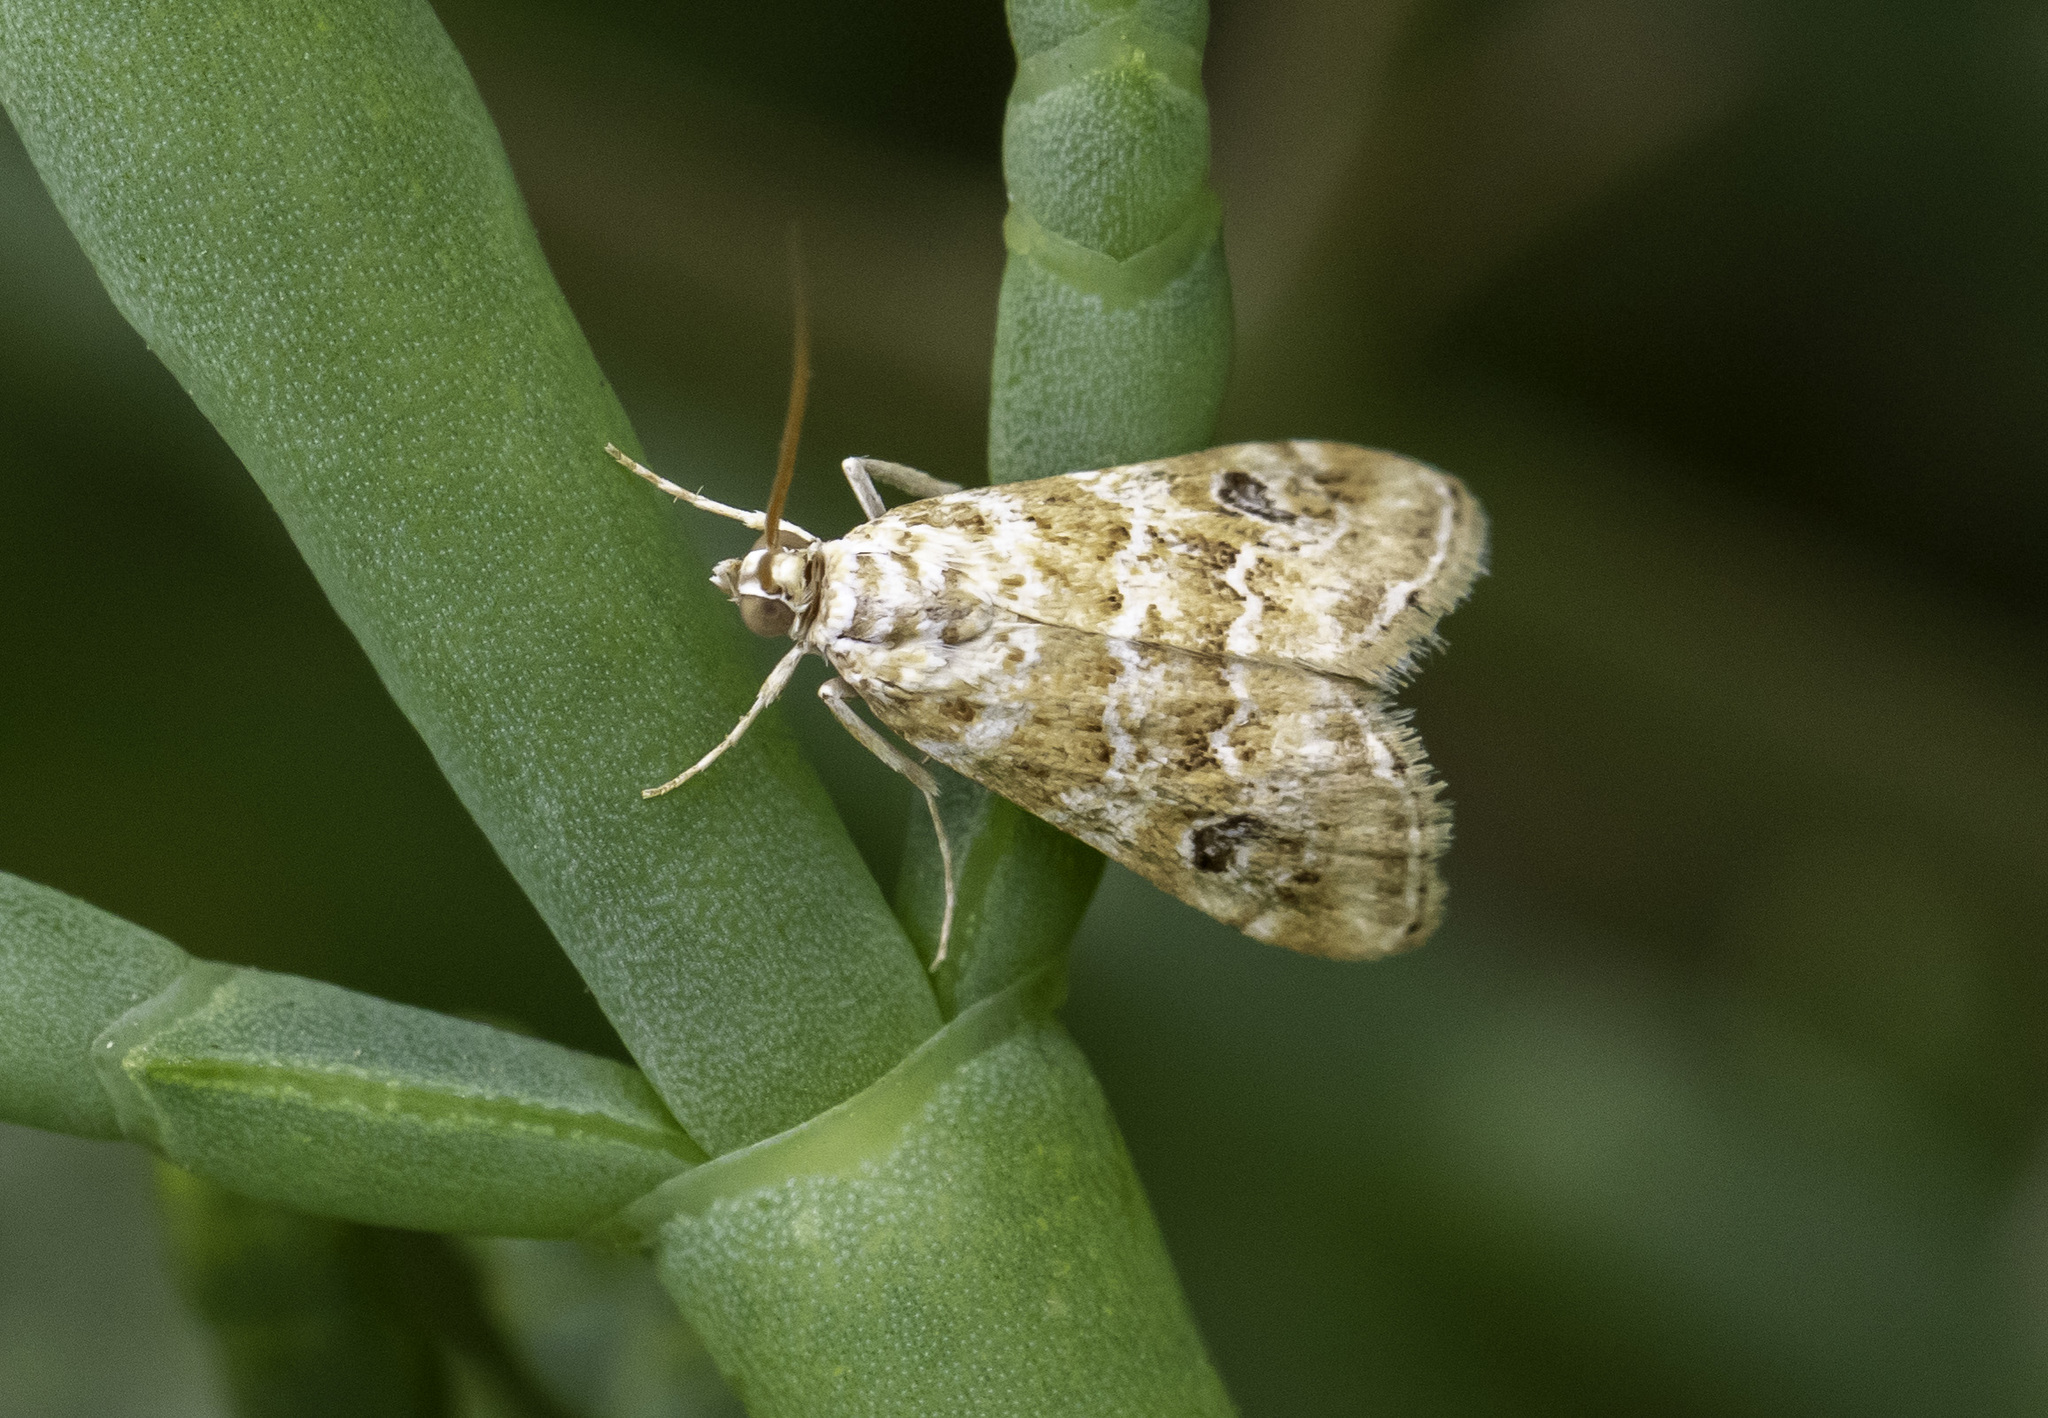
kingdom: Animalia
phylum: Arthropoda
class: Insecta
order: Lepidoptera
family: Crambidae
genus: Hellula
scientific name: Hellula rogatalis
